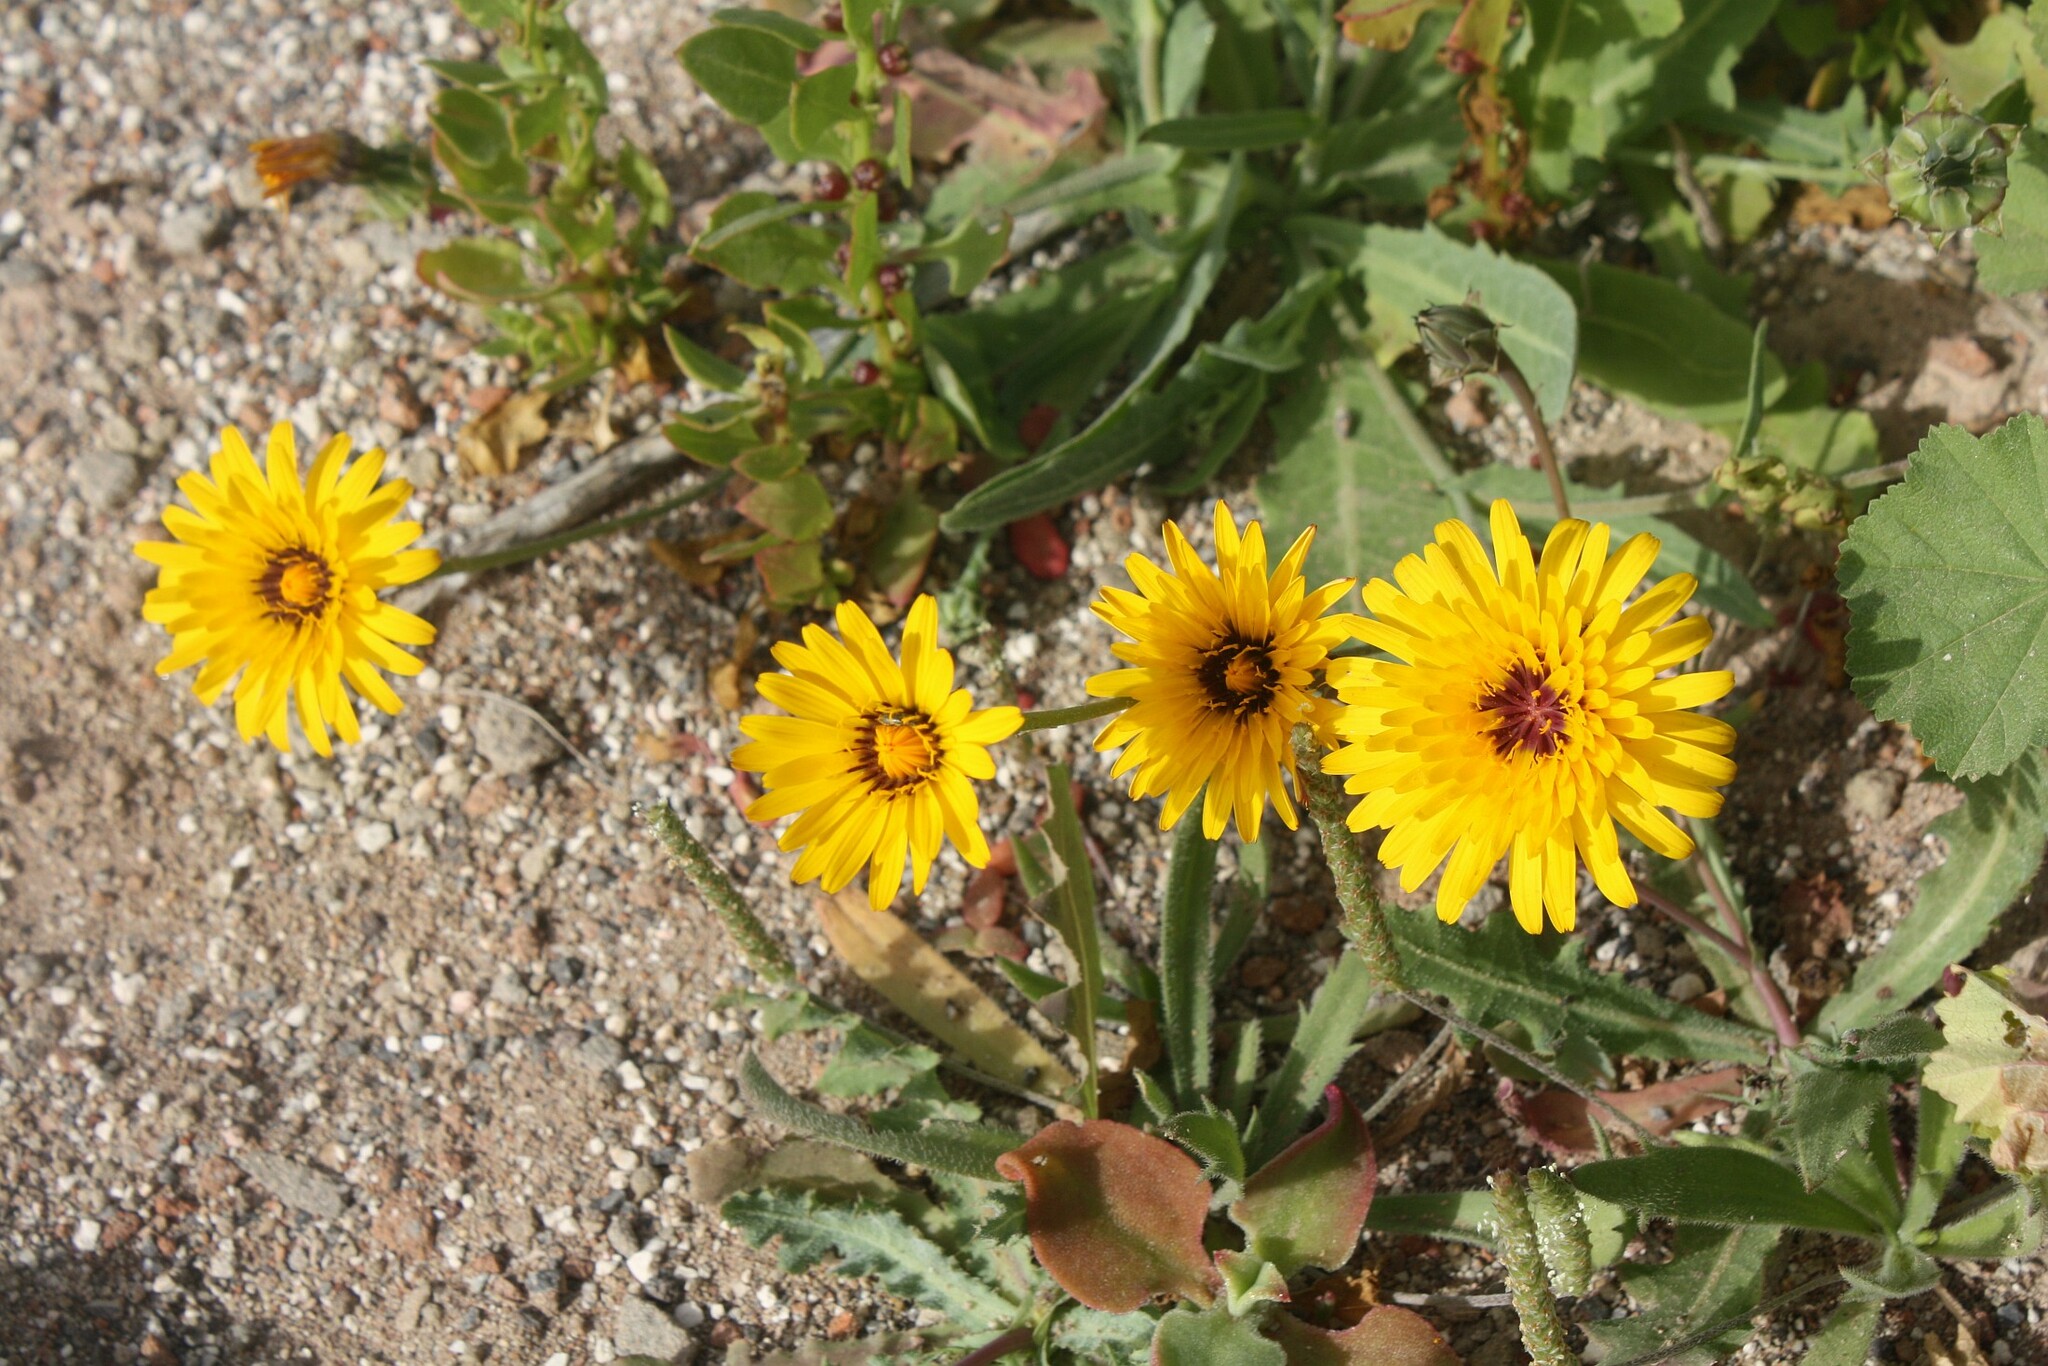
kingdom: Plantae
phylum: Tracheophyta
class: Magnoliopsida
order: Asterales
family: Asteraceae
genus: Reichardia
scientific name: Reichardia tingitana
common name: Reichardia
